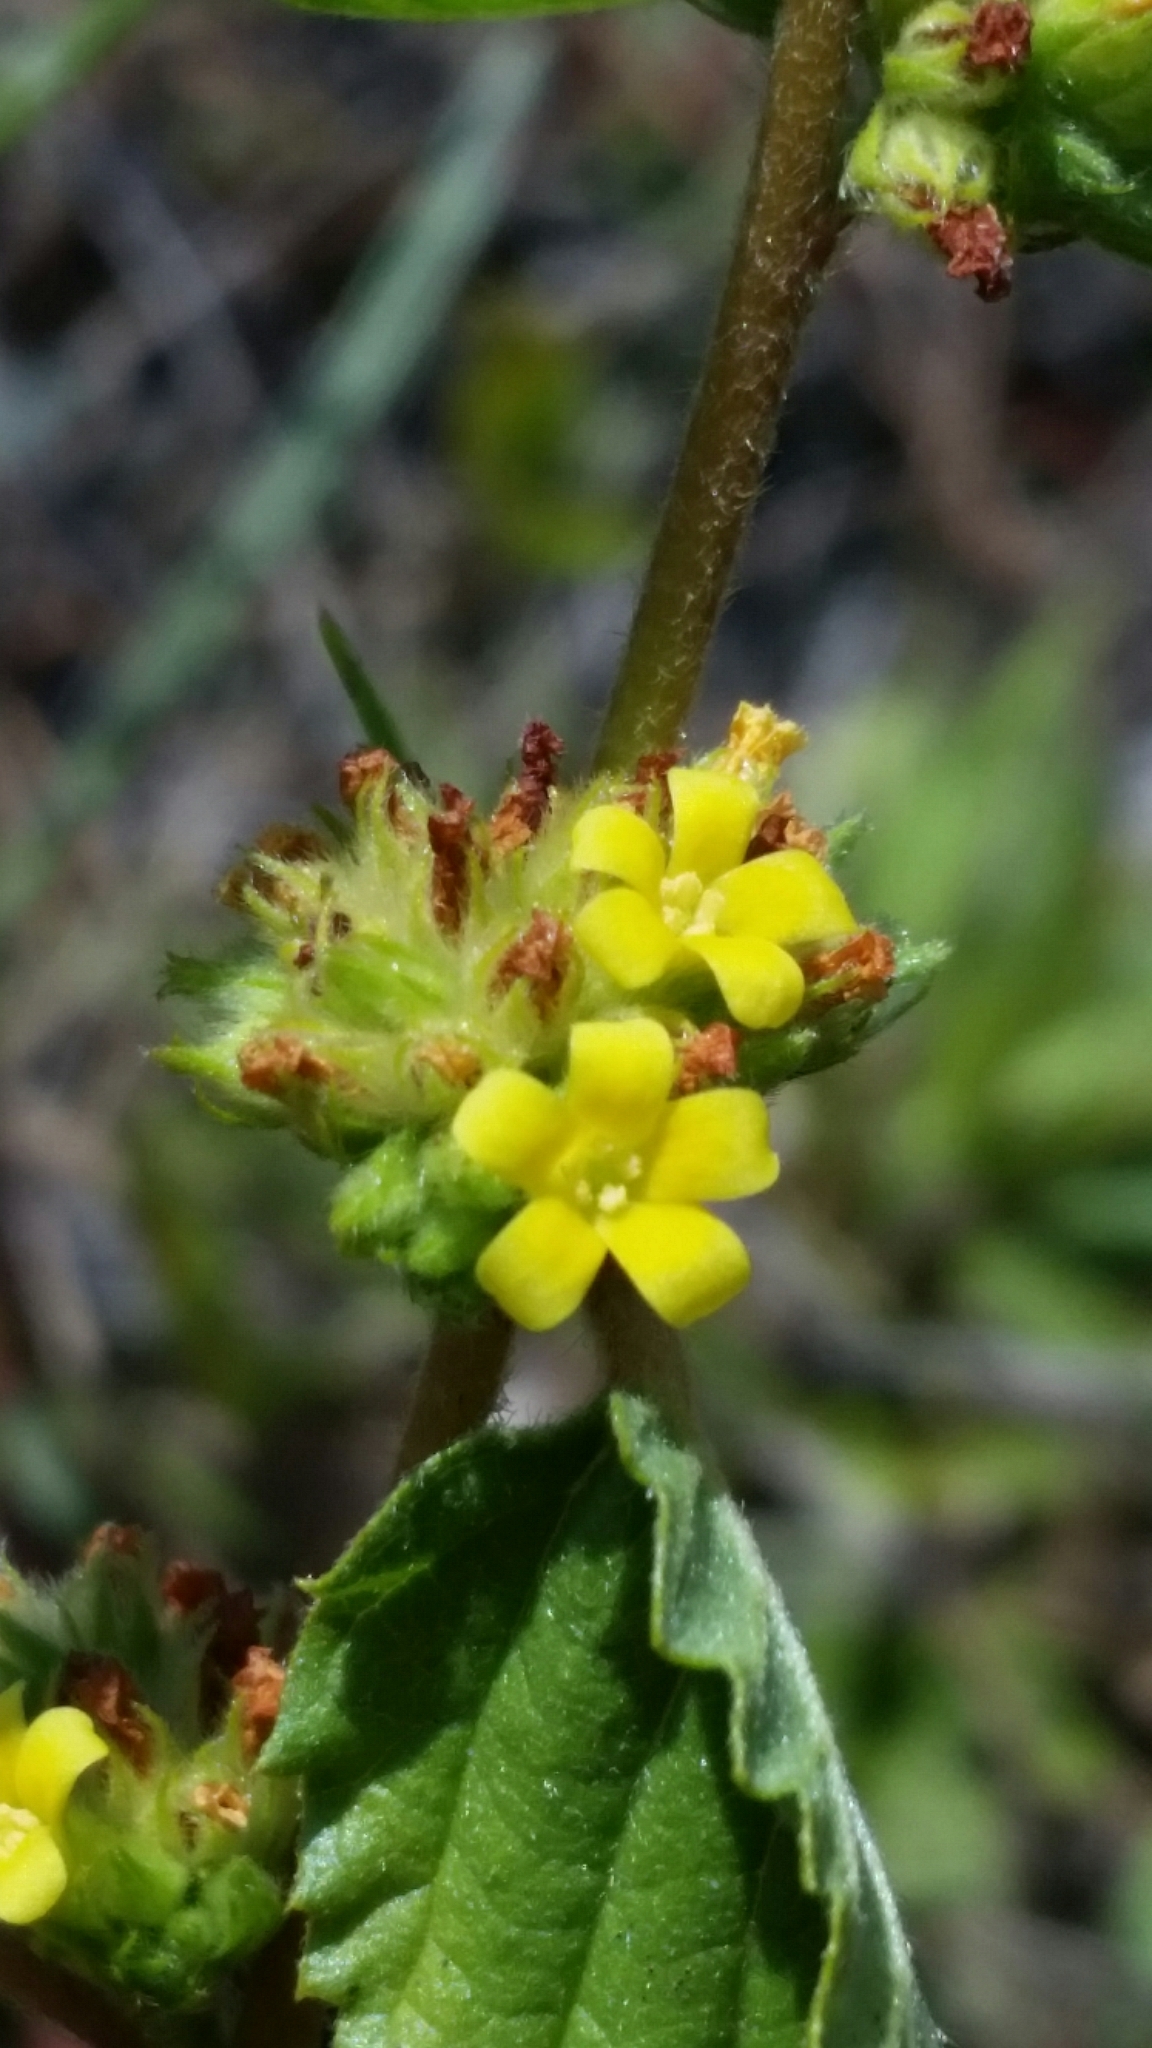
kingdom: Plantae
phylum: Tracheophyta
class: Magnoliopsida
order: Malvales
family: Malvaceae
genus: Waltheria
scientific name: Waltheria indica
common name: Leather-coat
